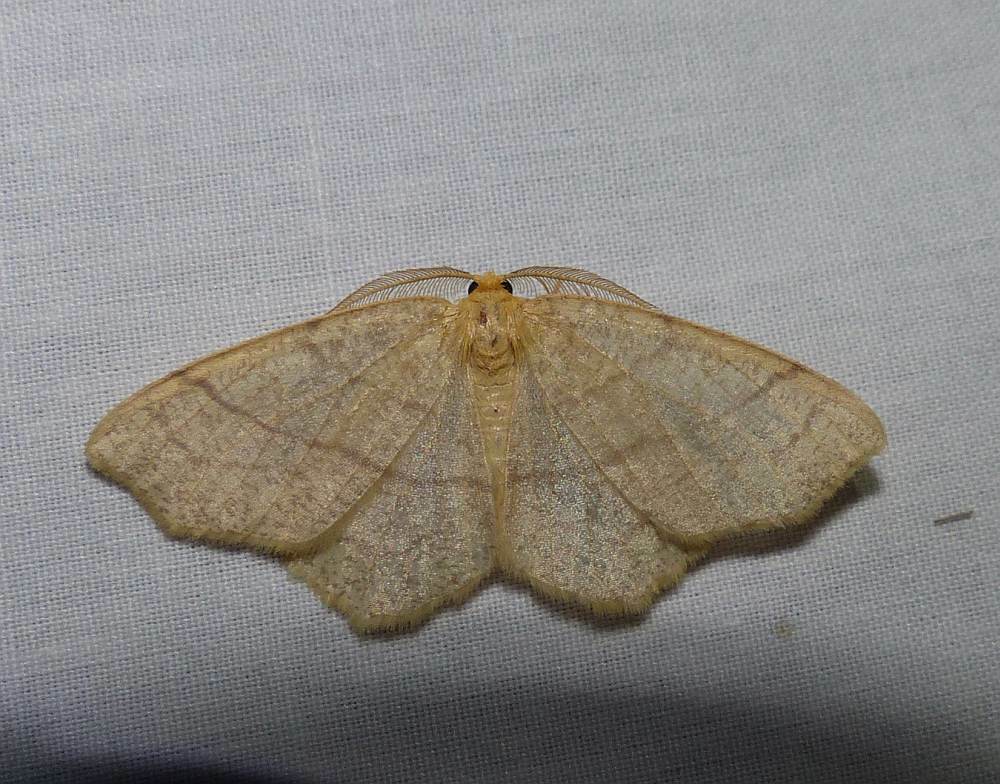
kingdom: Animalia
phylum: Arthropoda
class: Insecta
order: Lepidoptera
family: Geometridae
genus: Besma
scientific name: Besma endropiaria
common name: Straw besma
